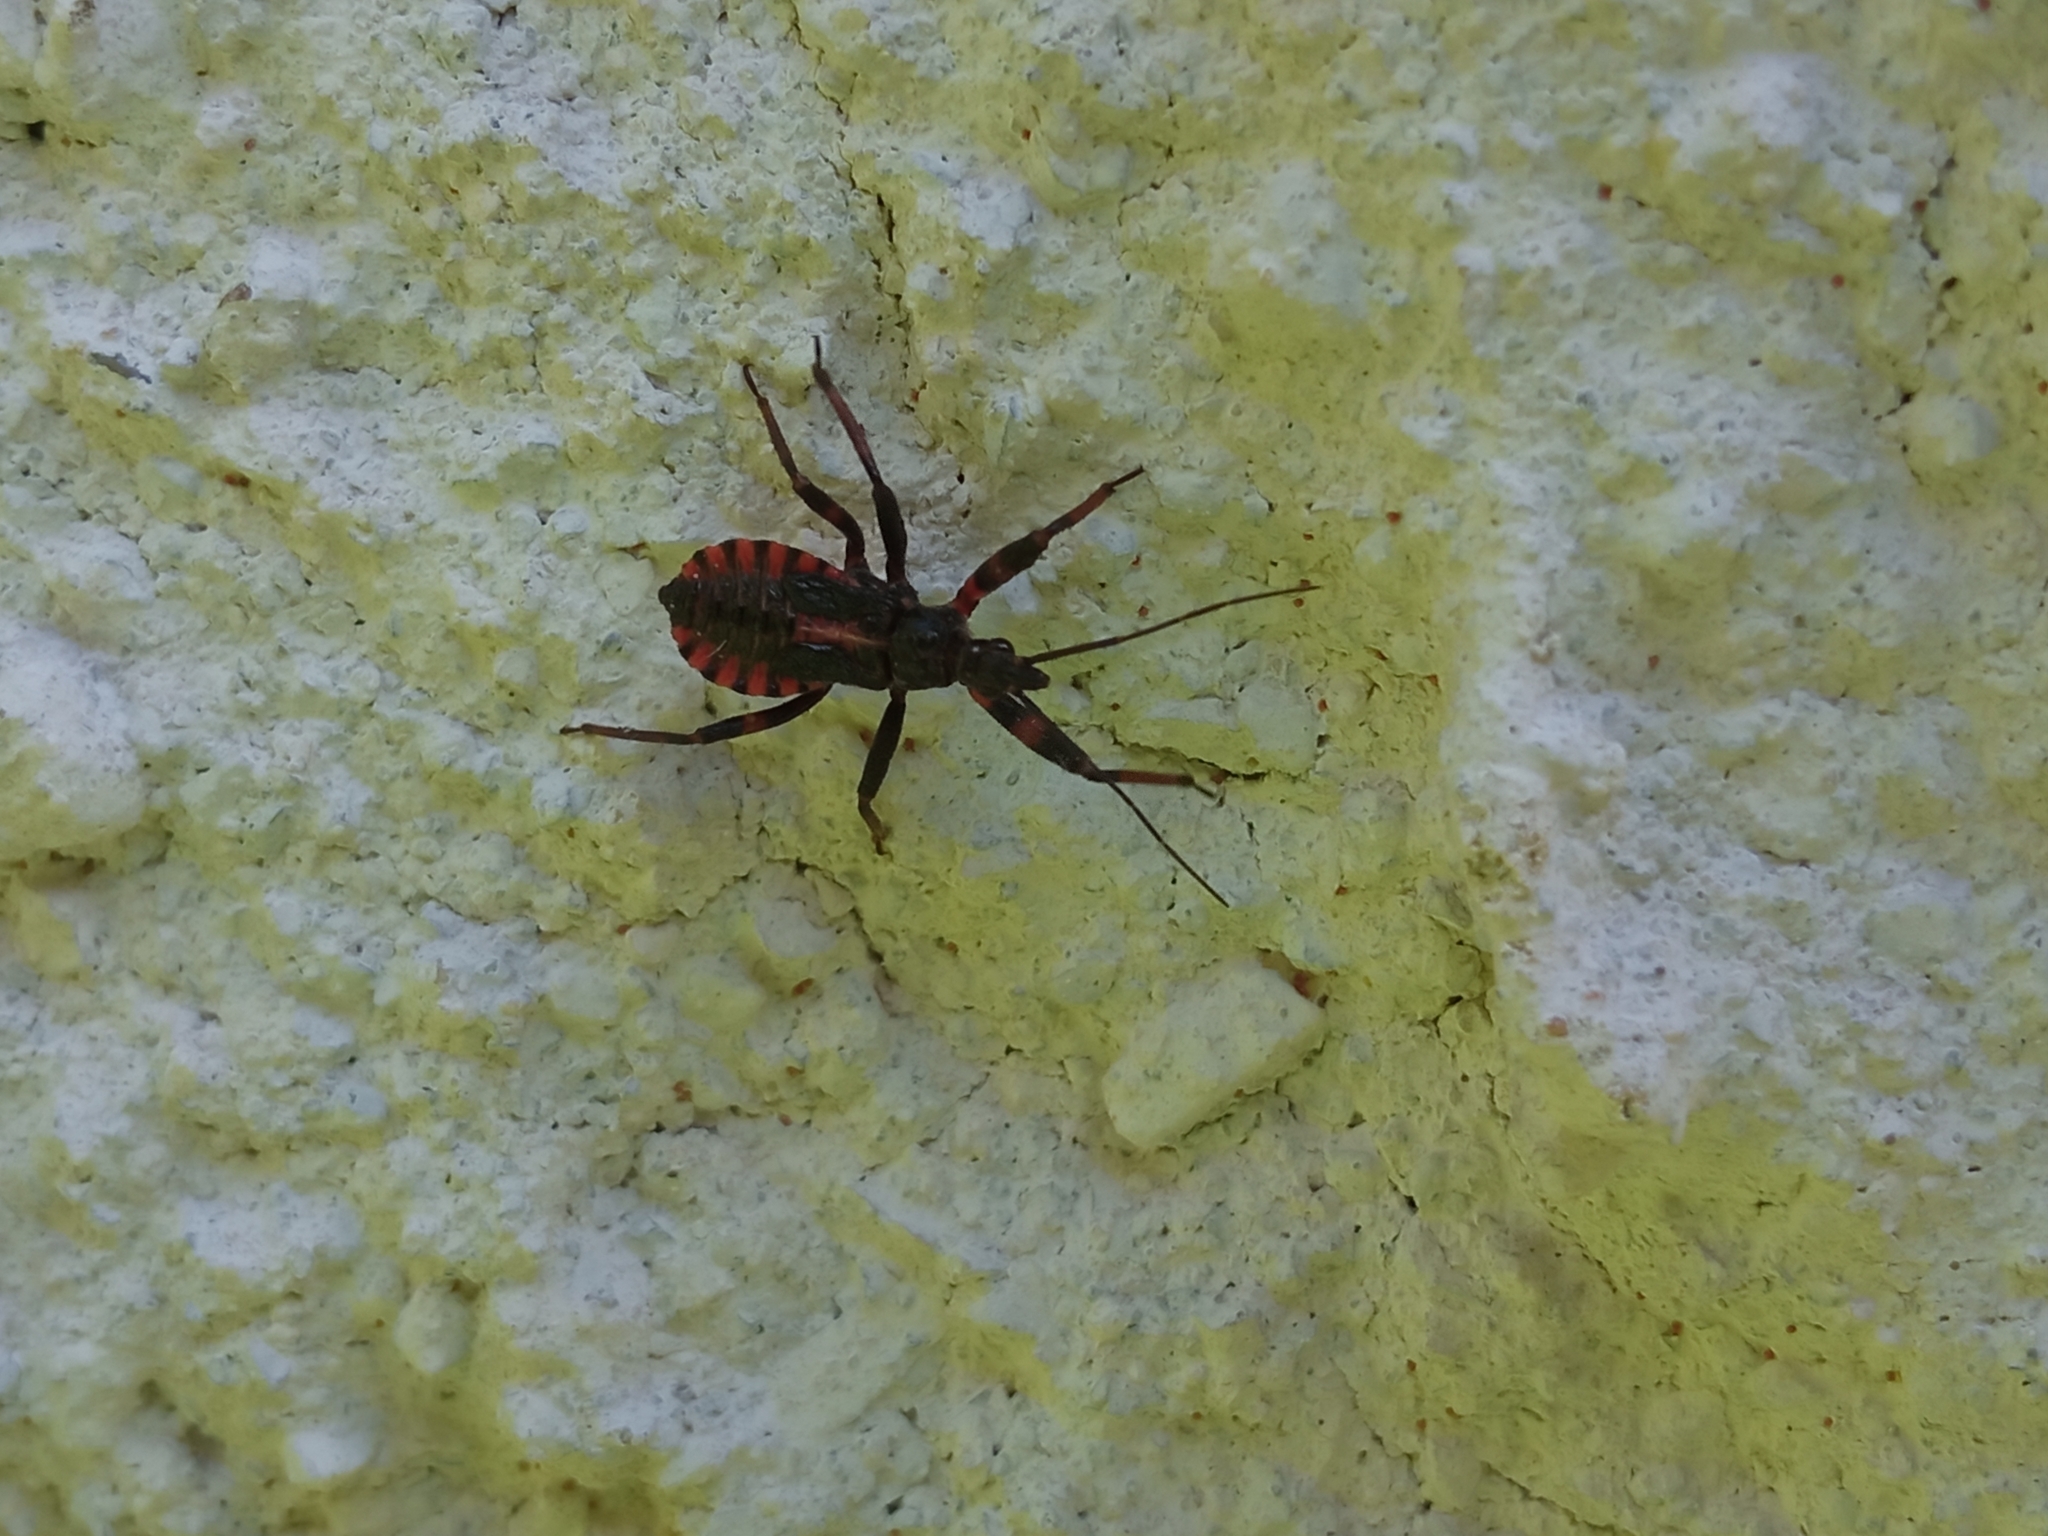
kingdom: Animalia
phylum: Arthropoda
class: Insecta
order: Hemiptera
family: Reduviidae
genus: Rhynocoris
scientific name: Rhynocoris annulatus
